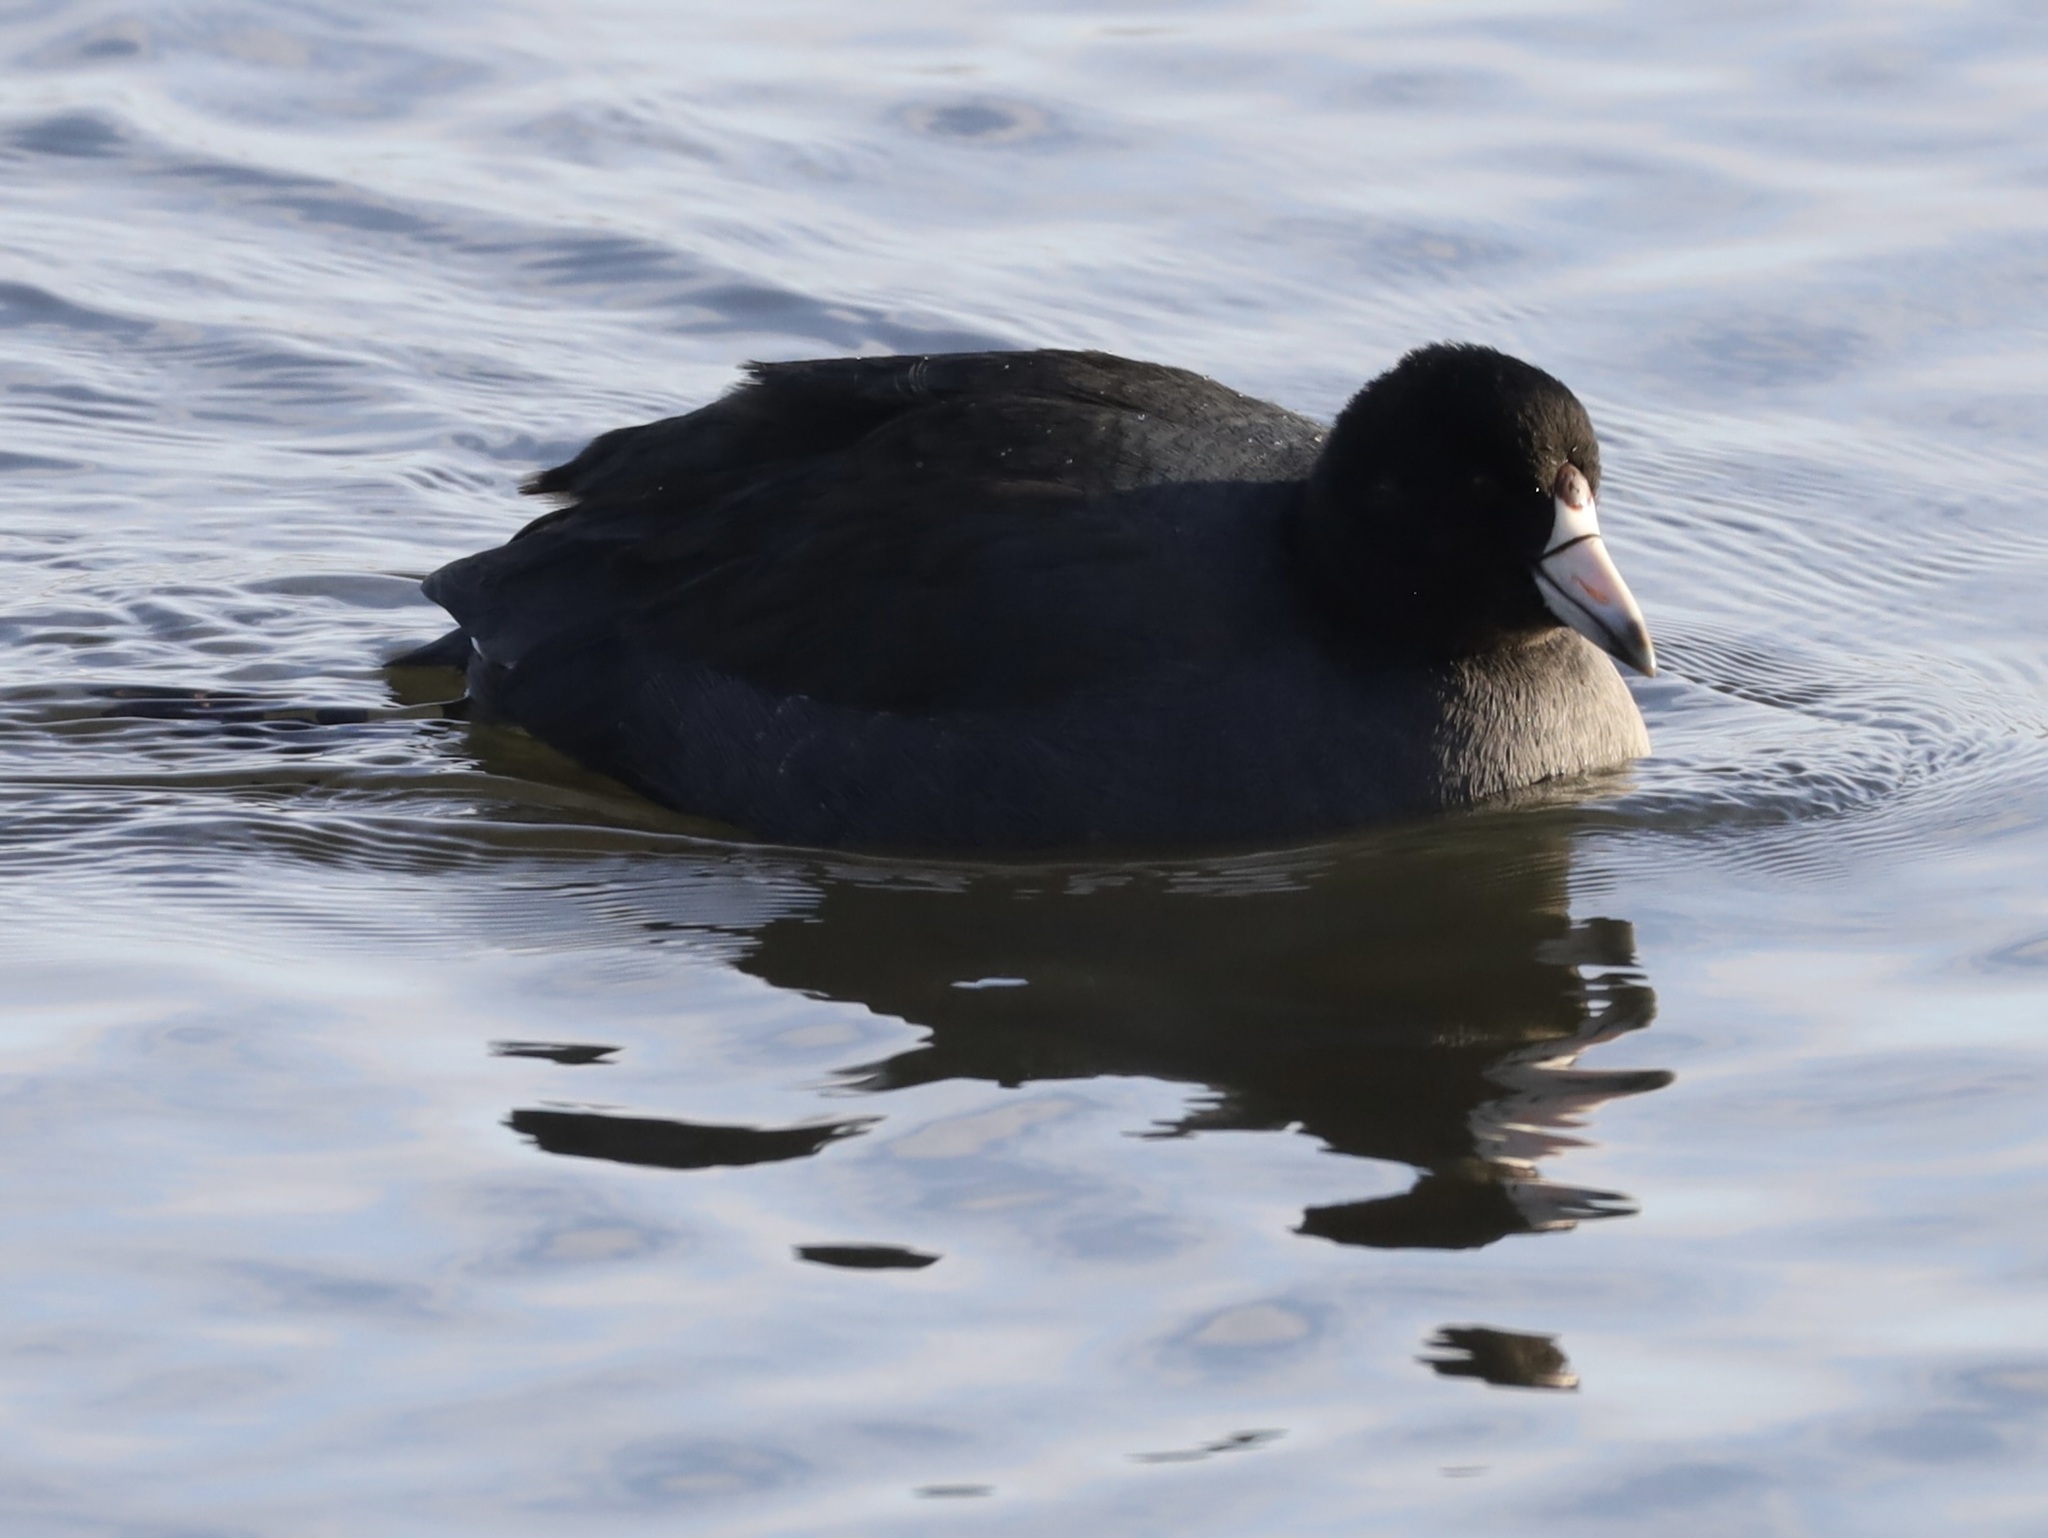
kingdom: Animalia
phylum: Chordata
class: Aves
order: Gruiformes
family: Rallidae
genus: Fulica
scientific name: Fulica americana
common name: American coot
